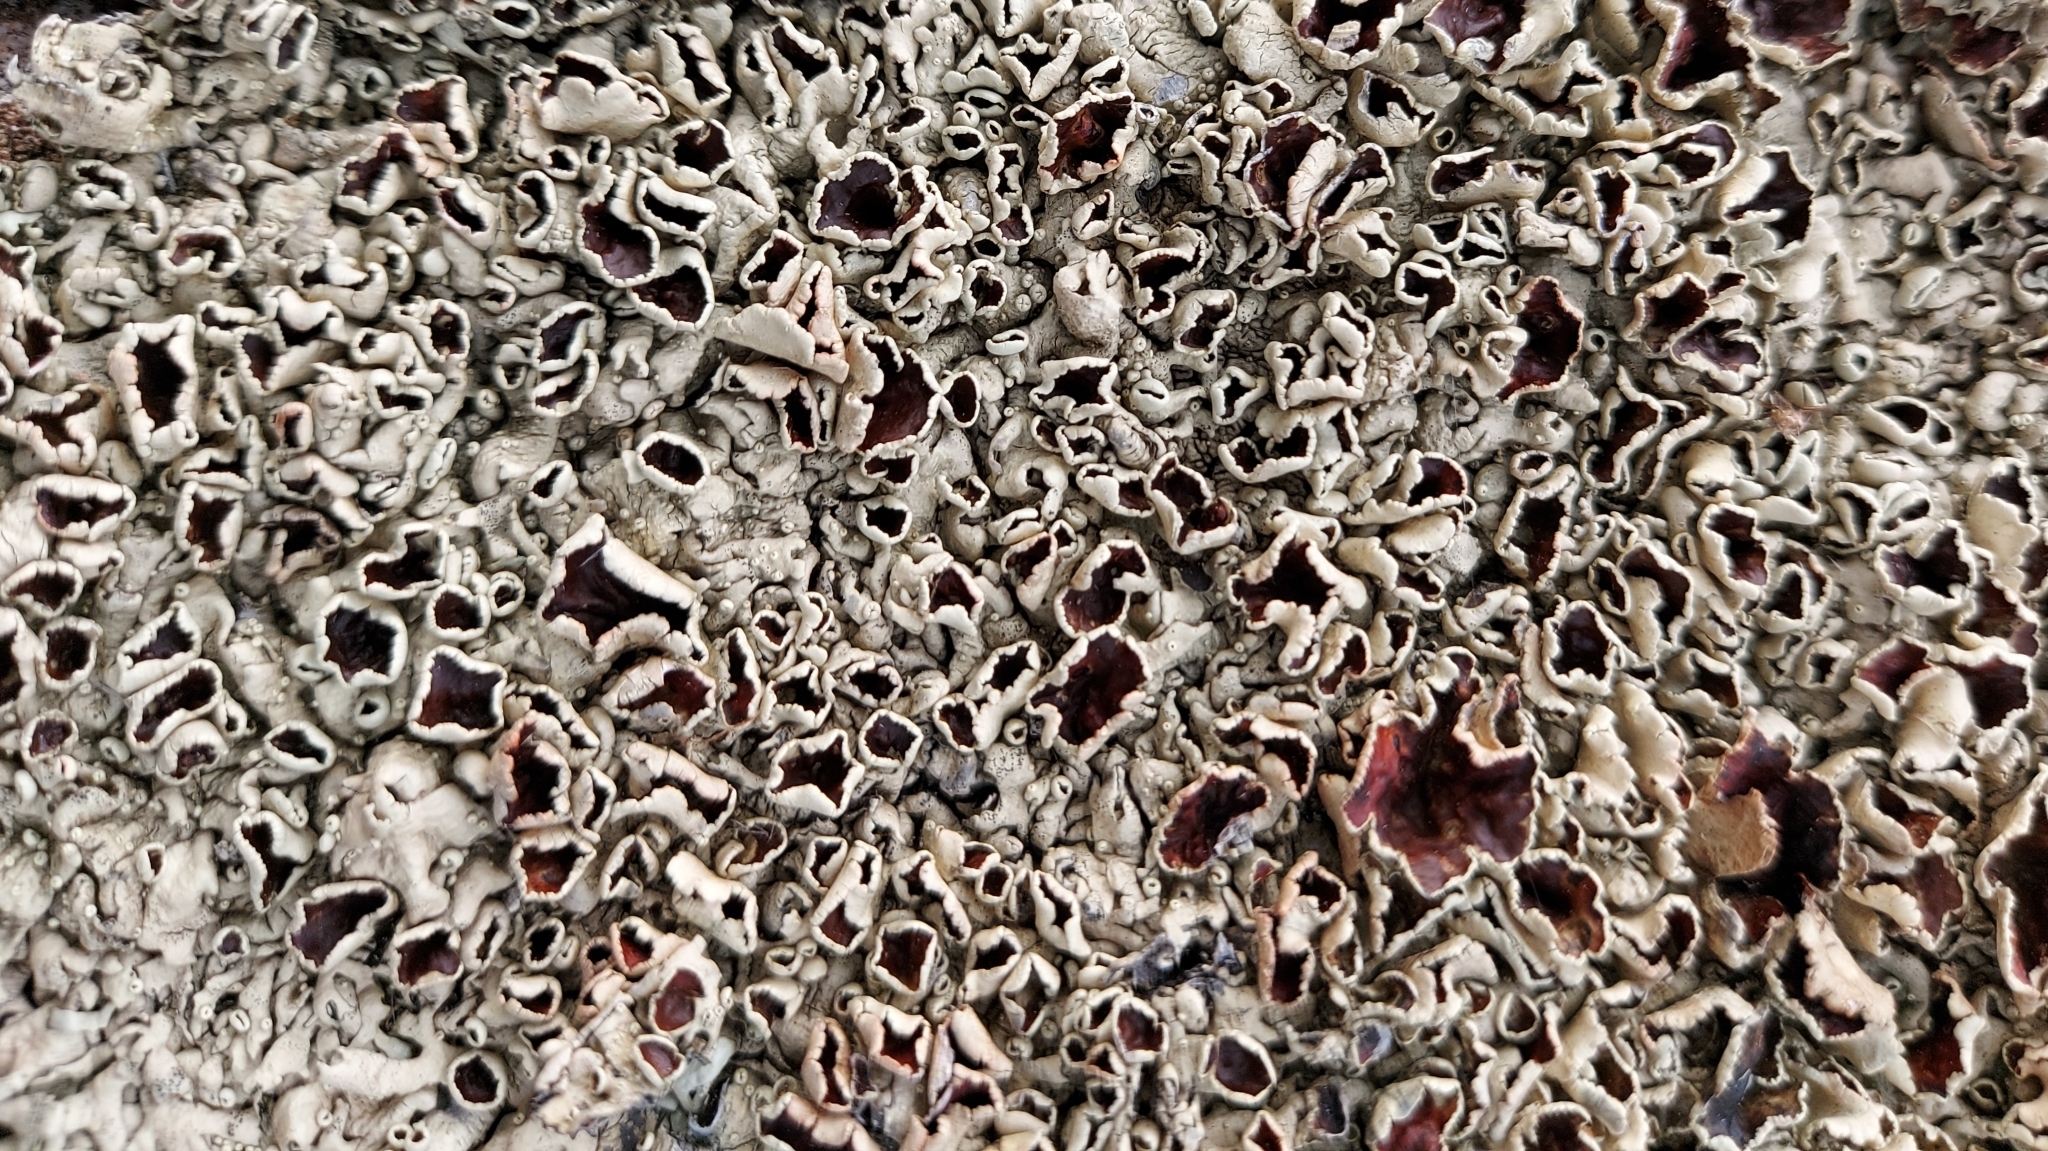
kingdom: Fungi
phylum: Ascomycota
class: Lecanoromycetes
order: Lecanorales
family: Parmeliaceae
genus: Xanthoparmelia
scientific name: Xanthoparmelia stenophylla
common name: Shingled rock shield
